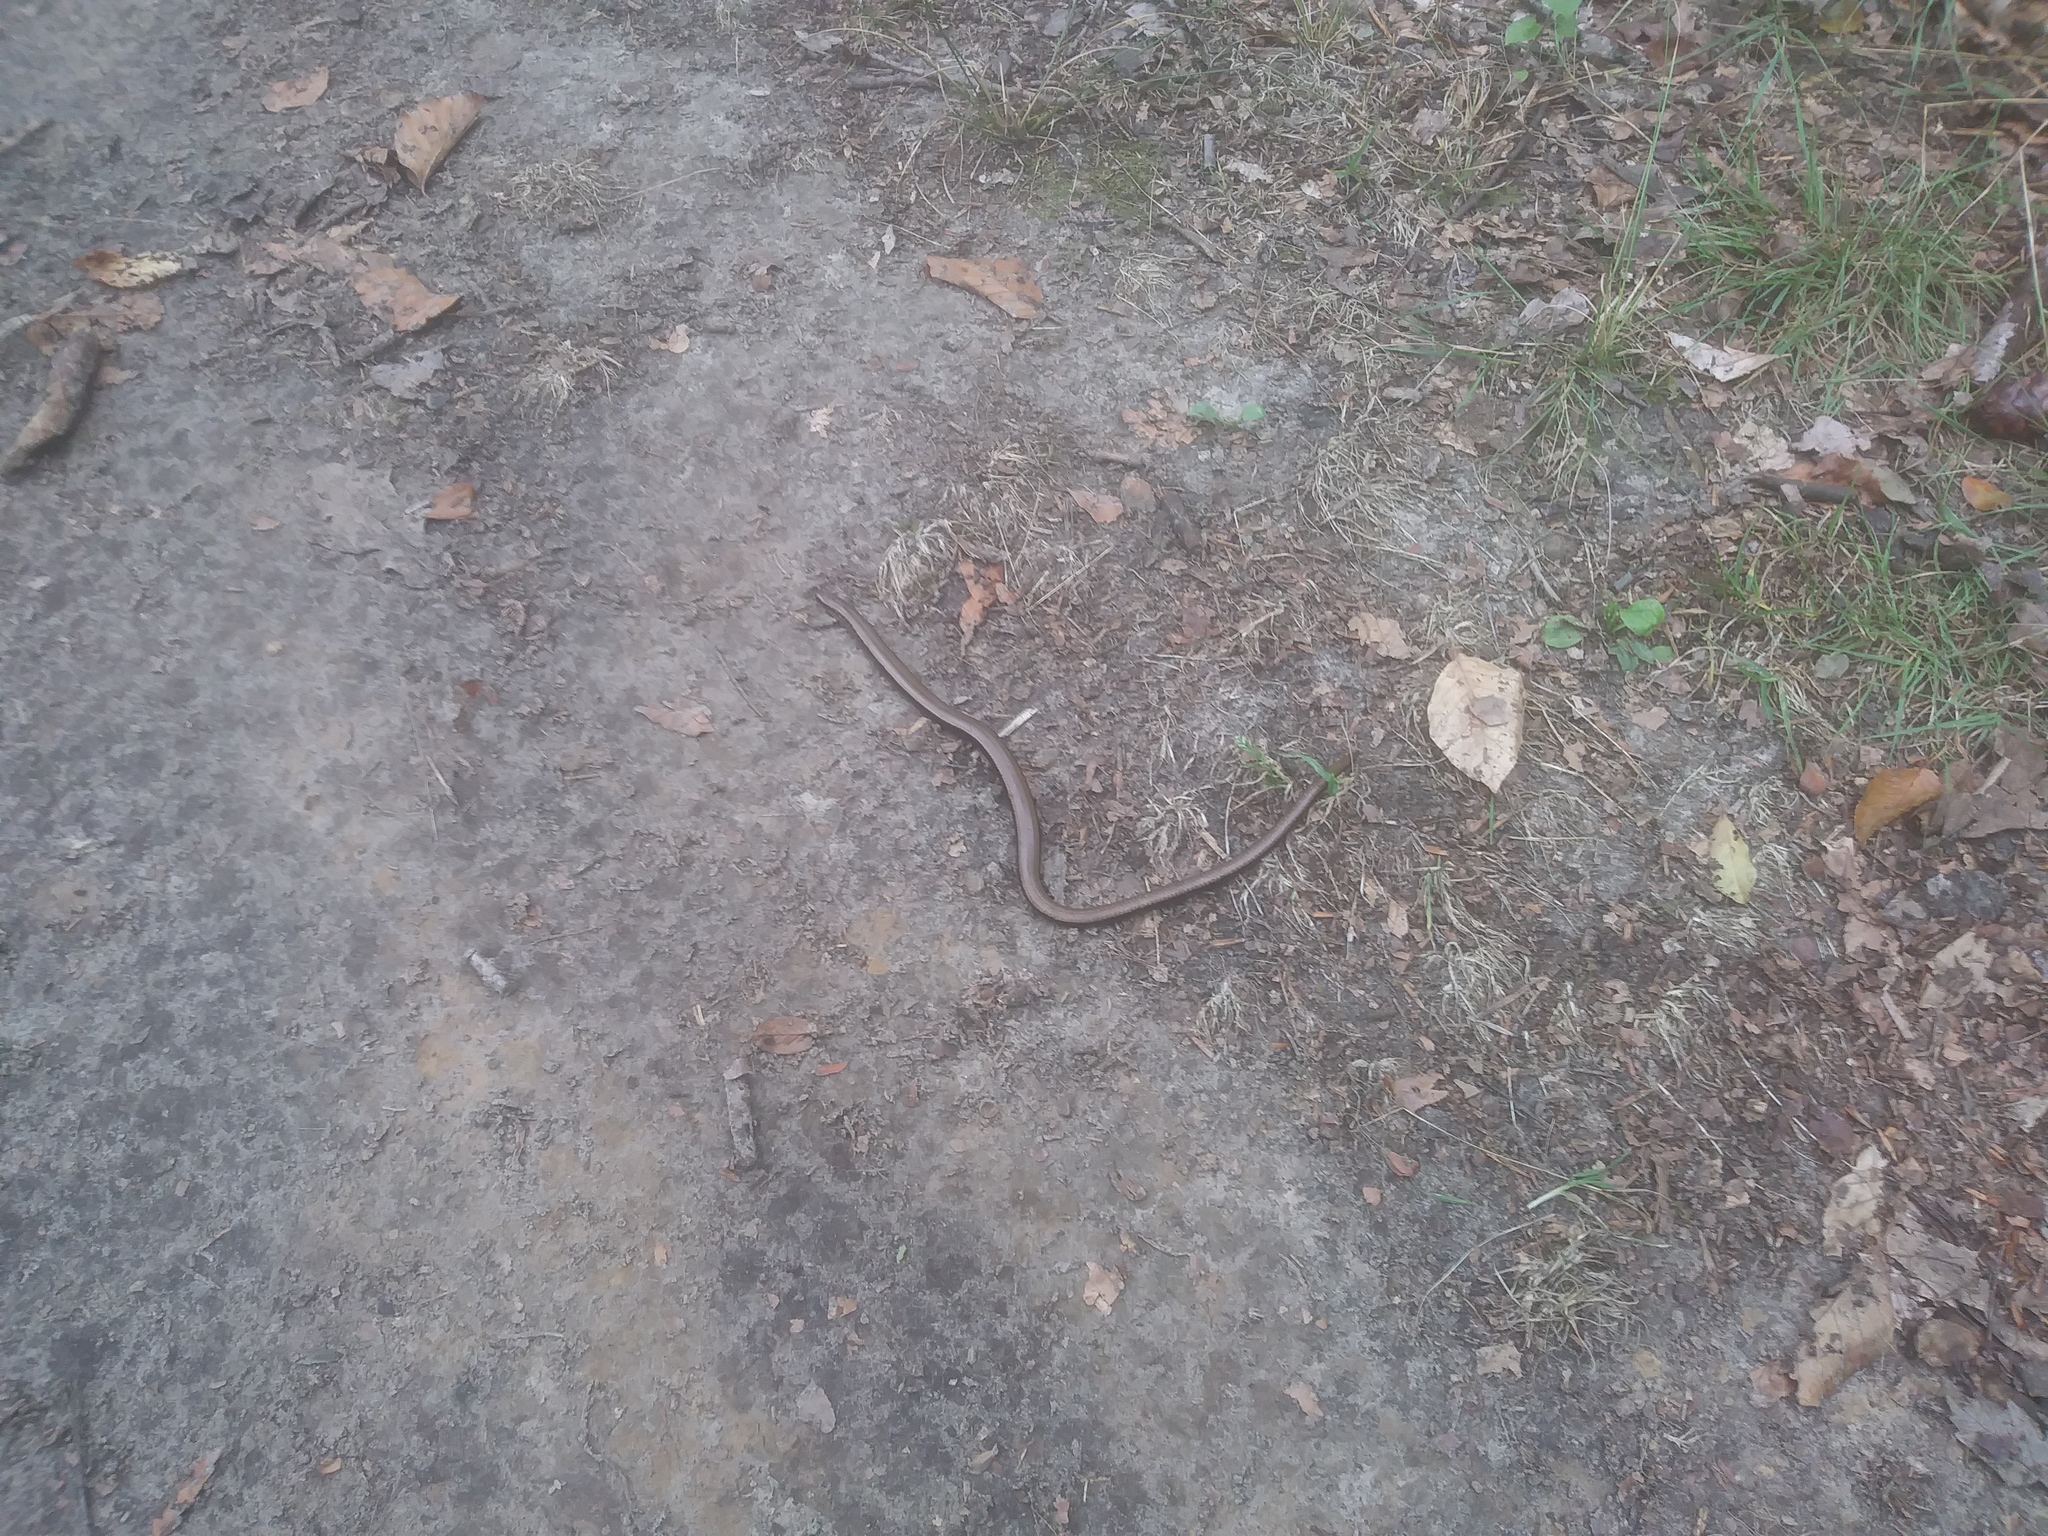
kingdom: Animalia
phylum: Chordata
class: Squamata
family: Anguidae
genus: Anguis
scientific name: Anguis fragilis
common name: Slow worm
